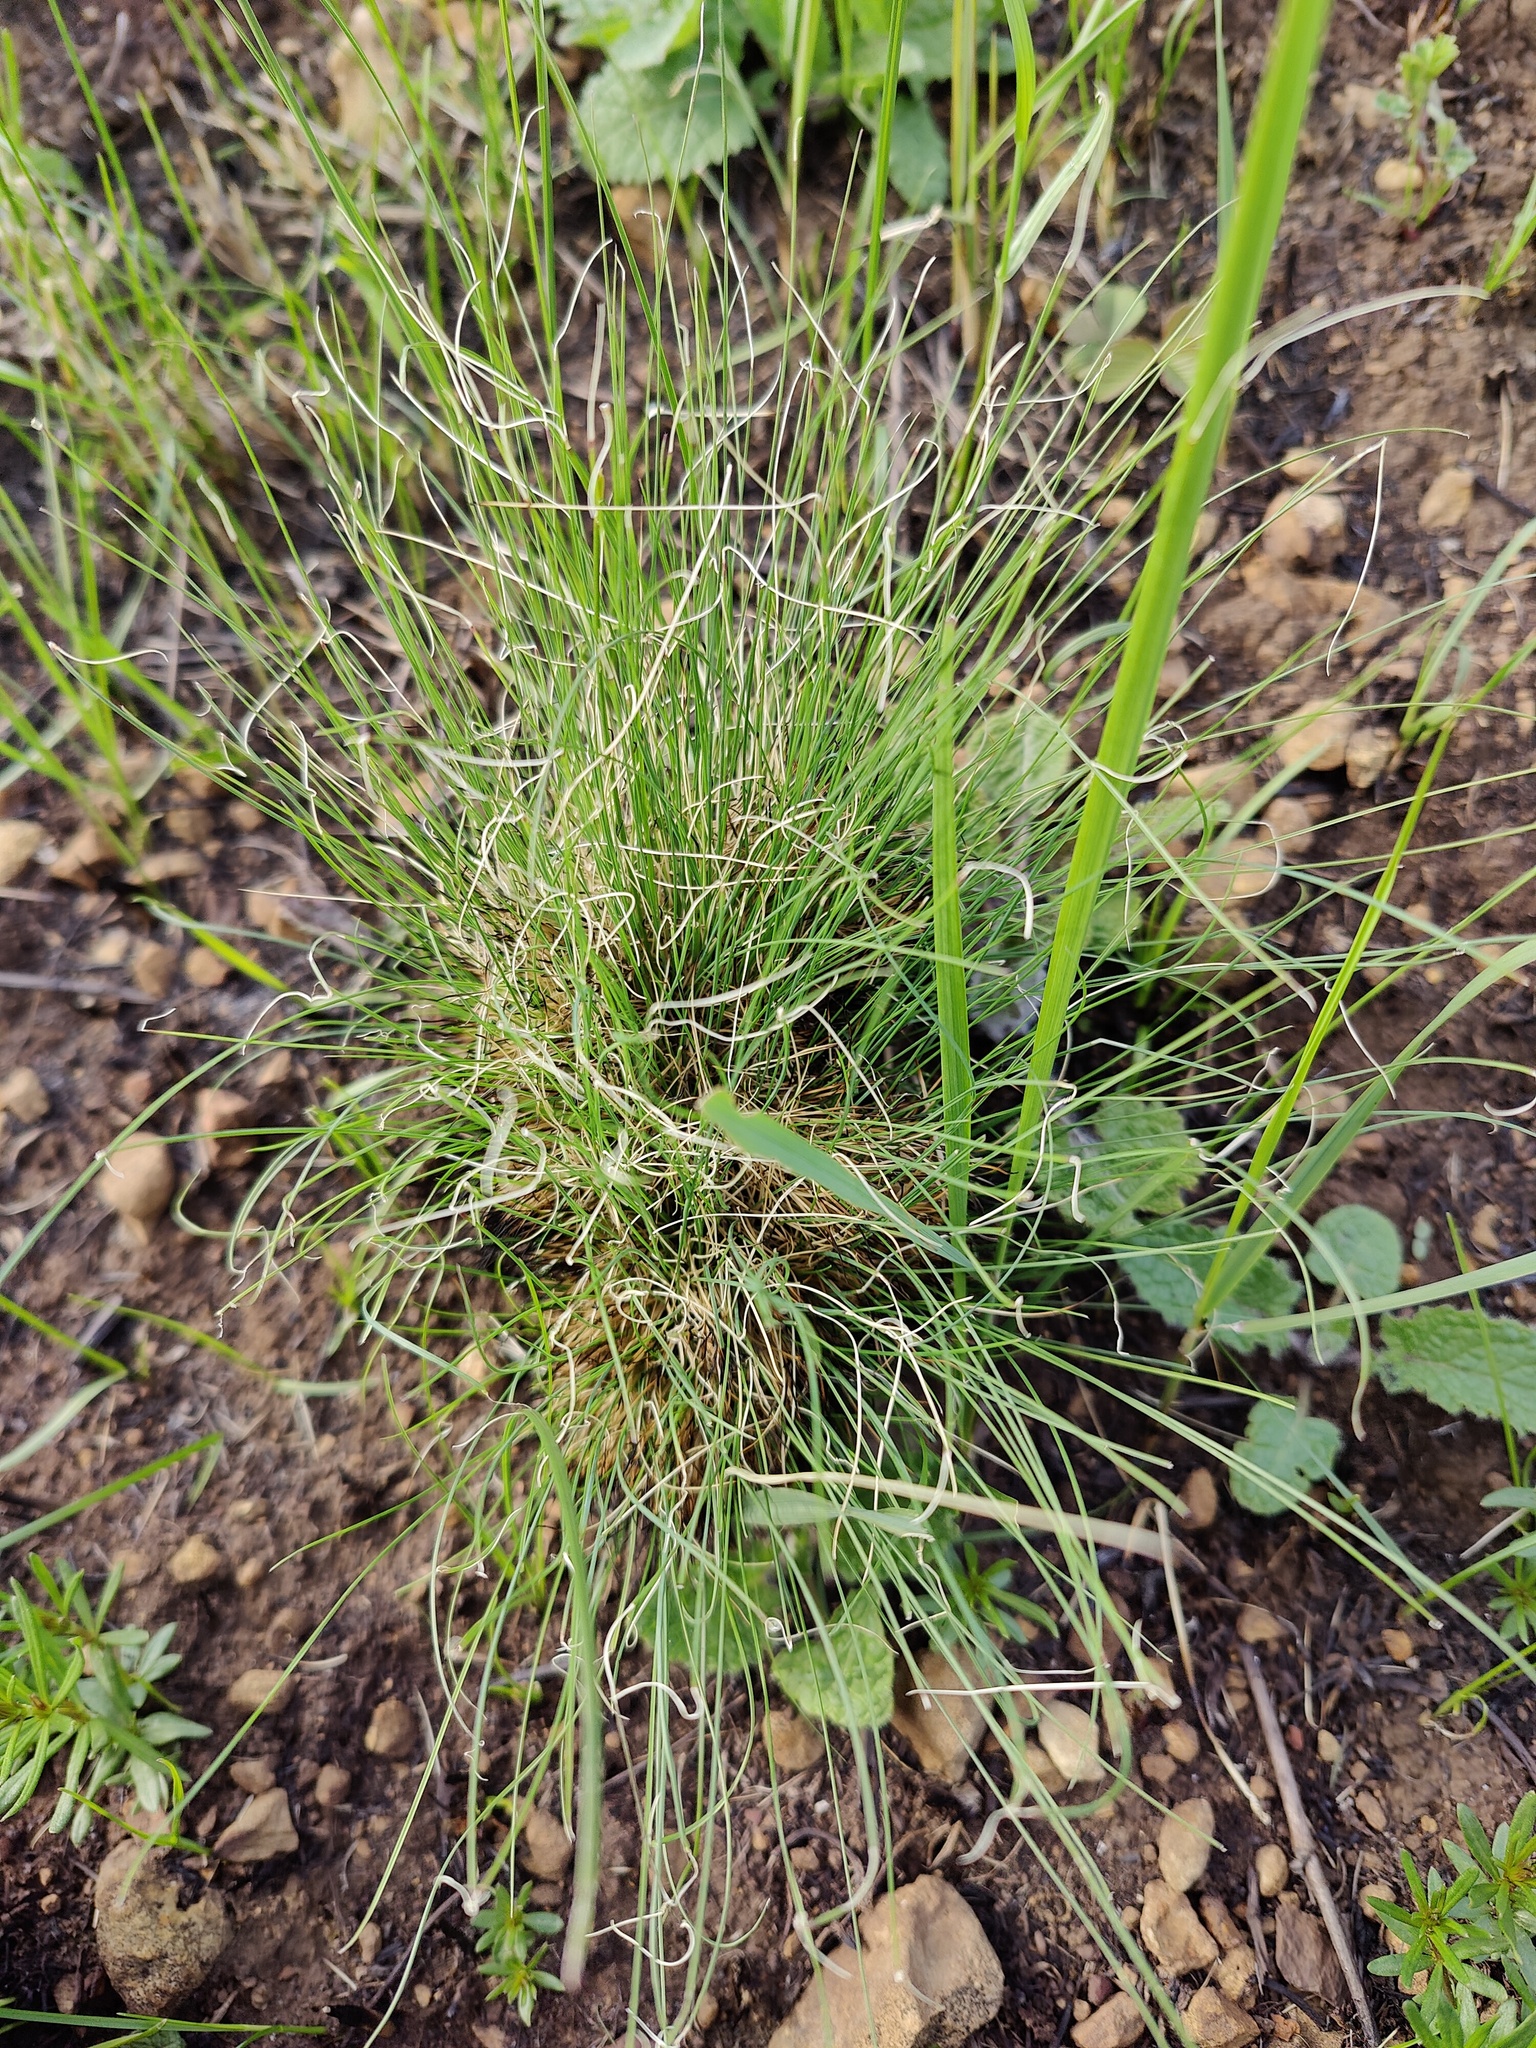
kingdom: Plantae
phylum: Tracheophyta
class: Liliopsida
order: Poales
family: Poaceae
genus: Festuca
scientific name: Festuca valesiaca
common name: Volga fescue
